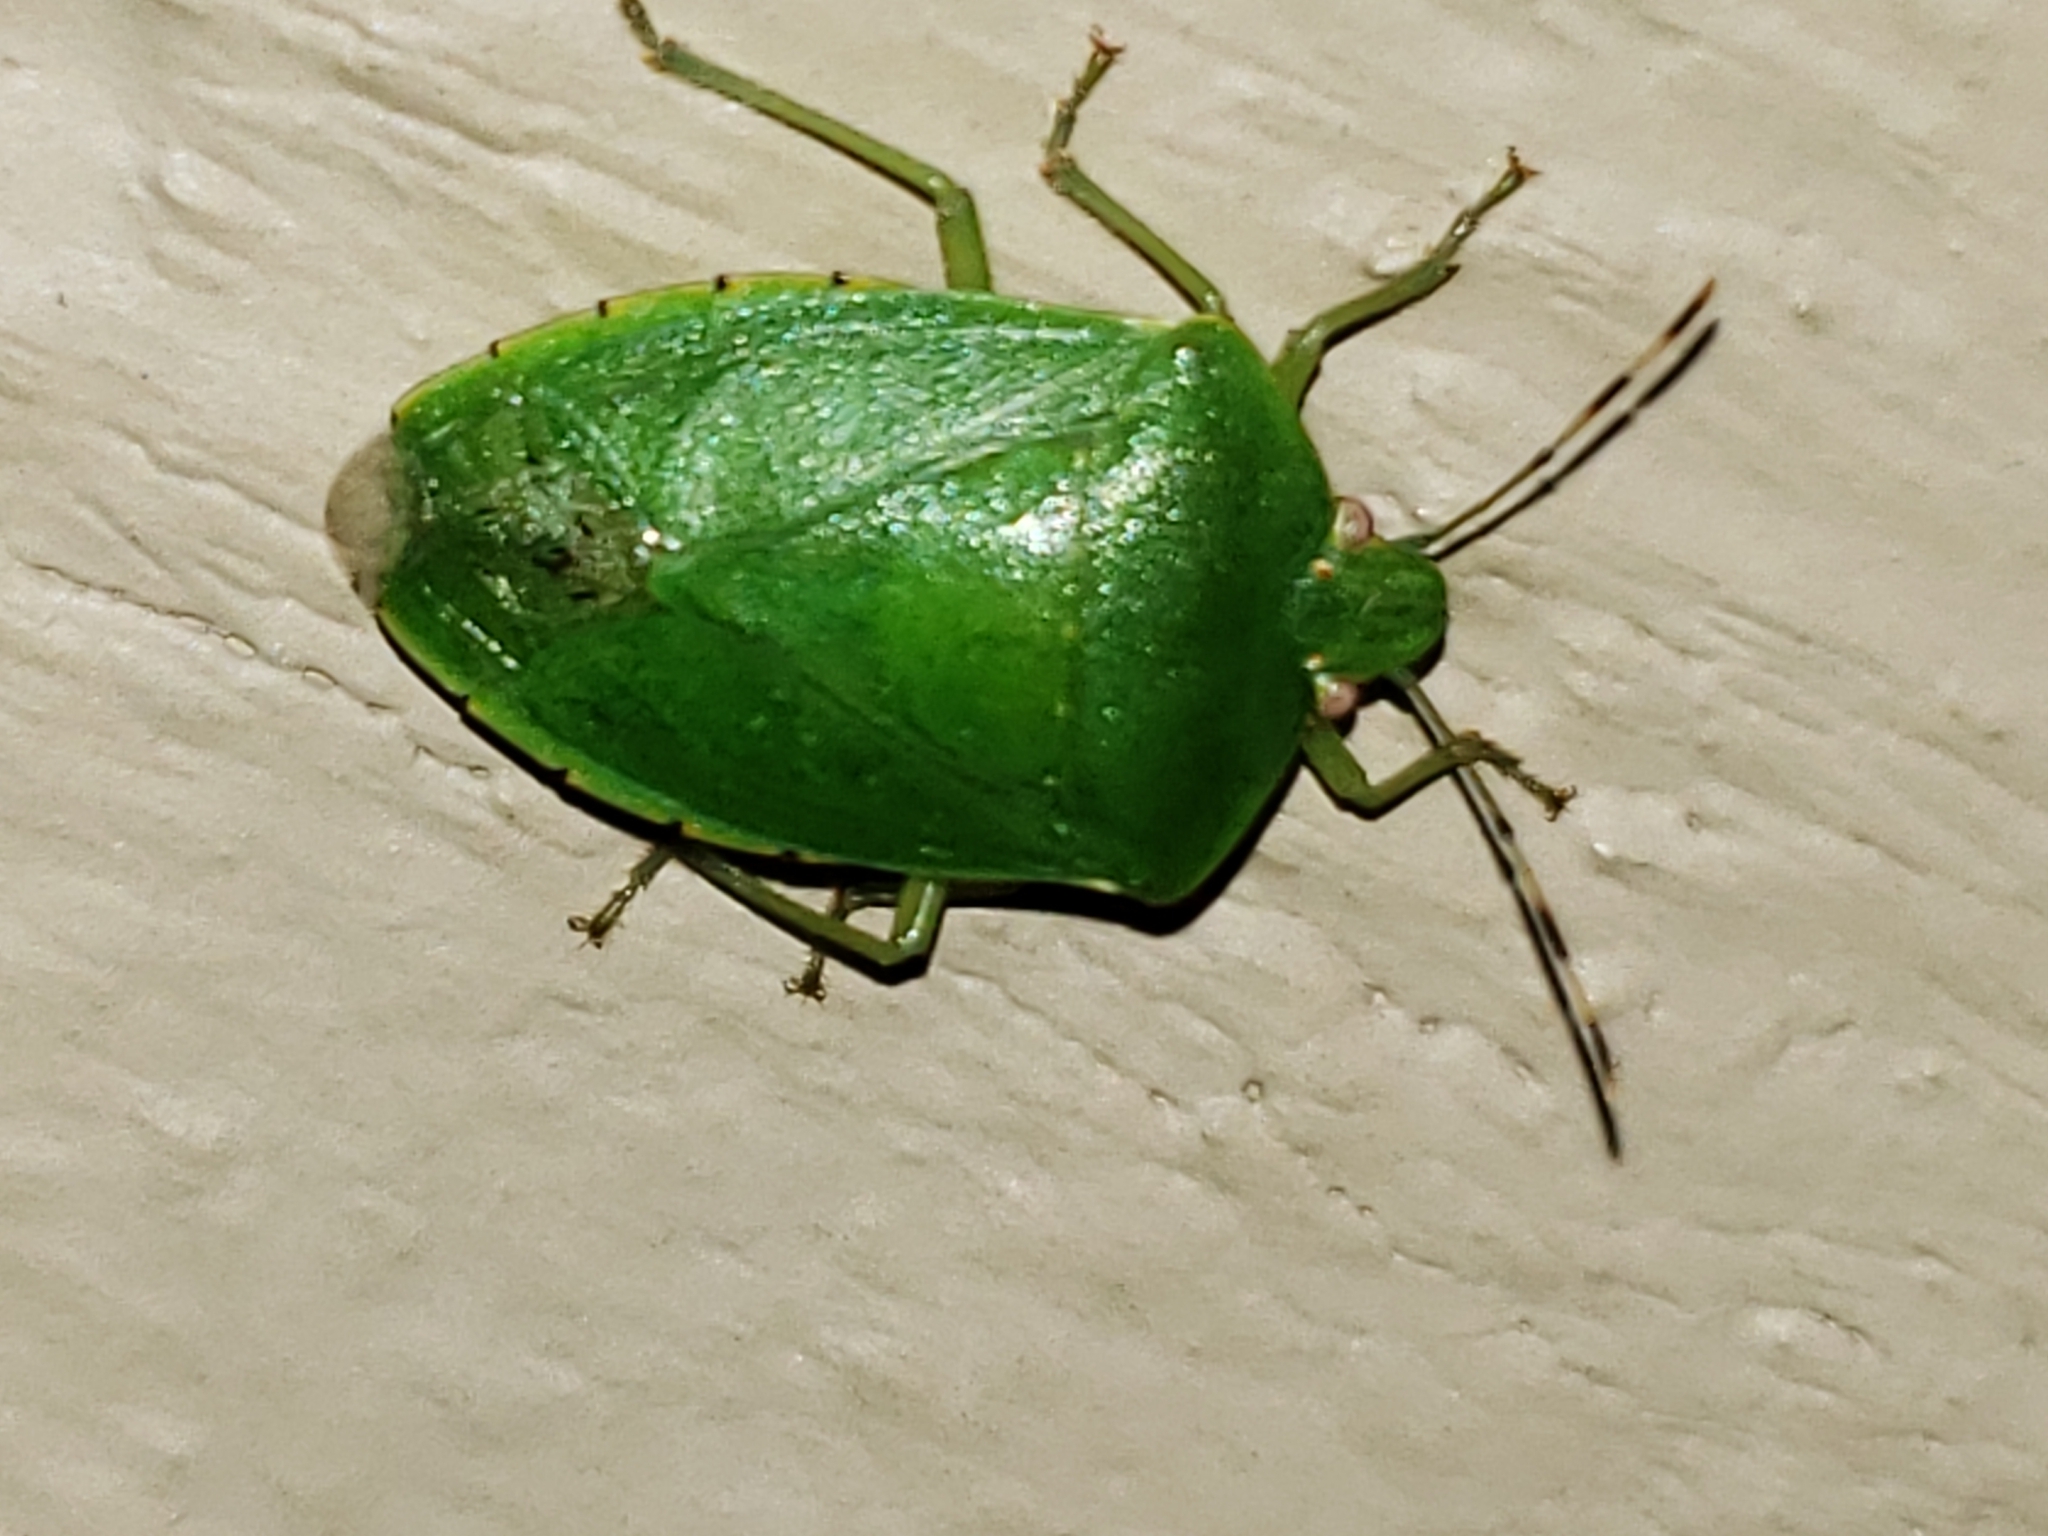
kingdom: Animalia
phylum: Arthropoda
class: Insecta
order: Hemiptera
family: Pentatomidae
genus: Chinavia
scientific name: Chinavia hilaris
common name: Green stink bug
